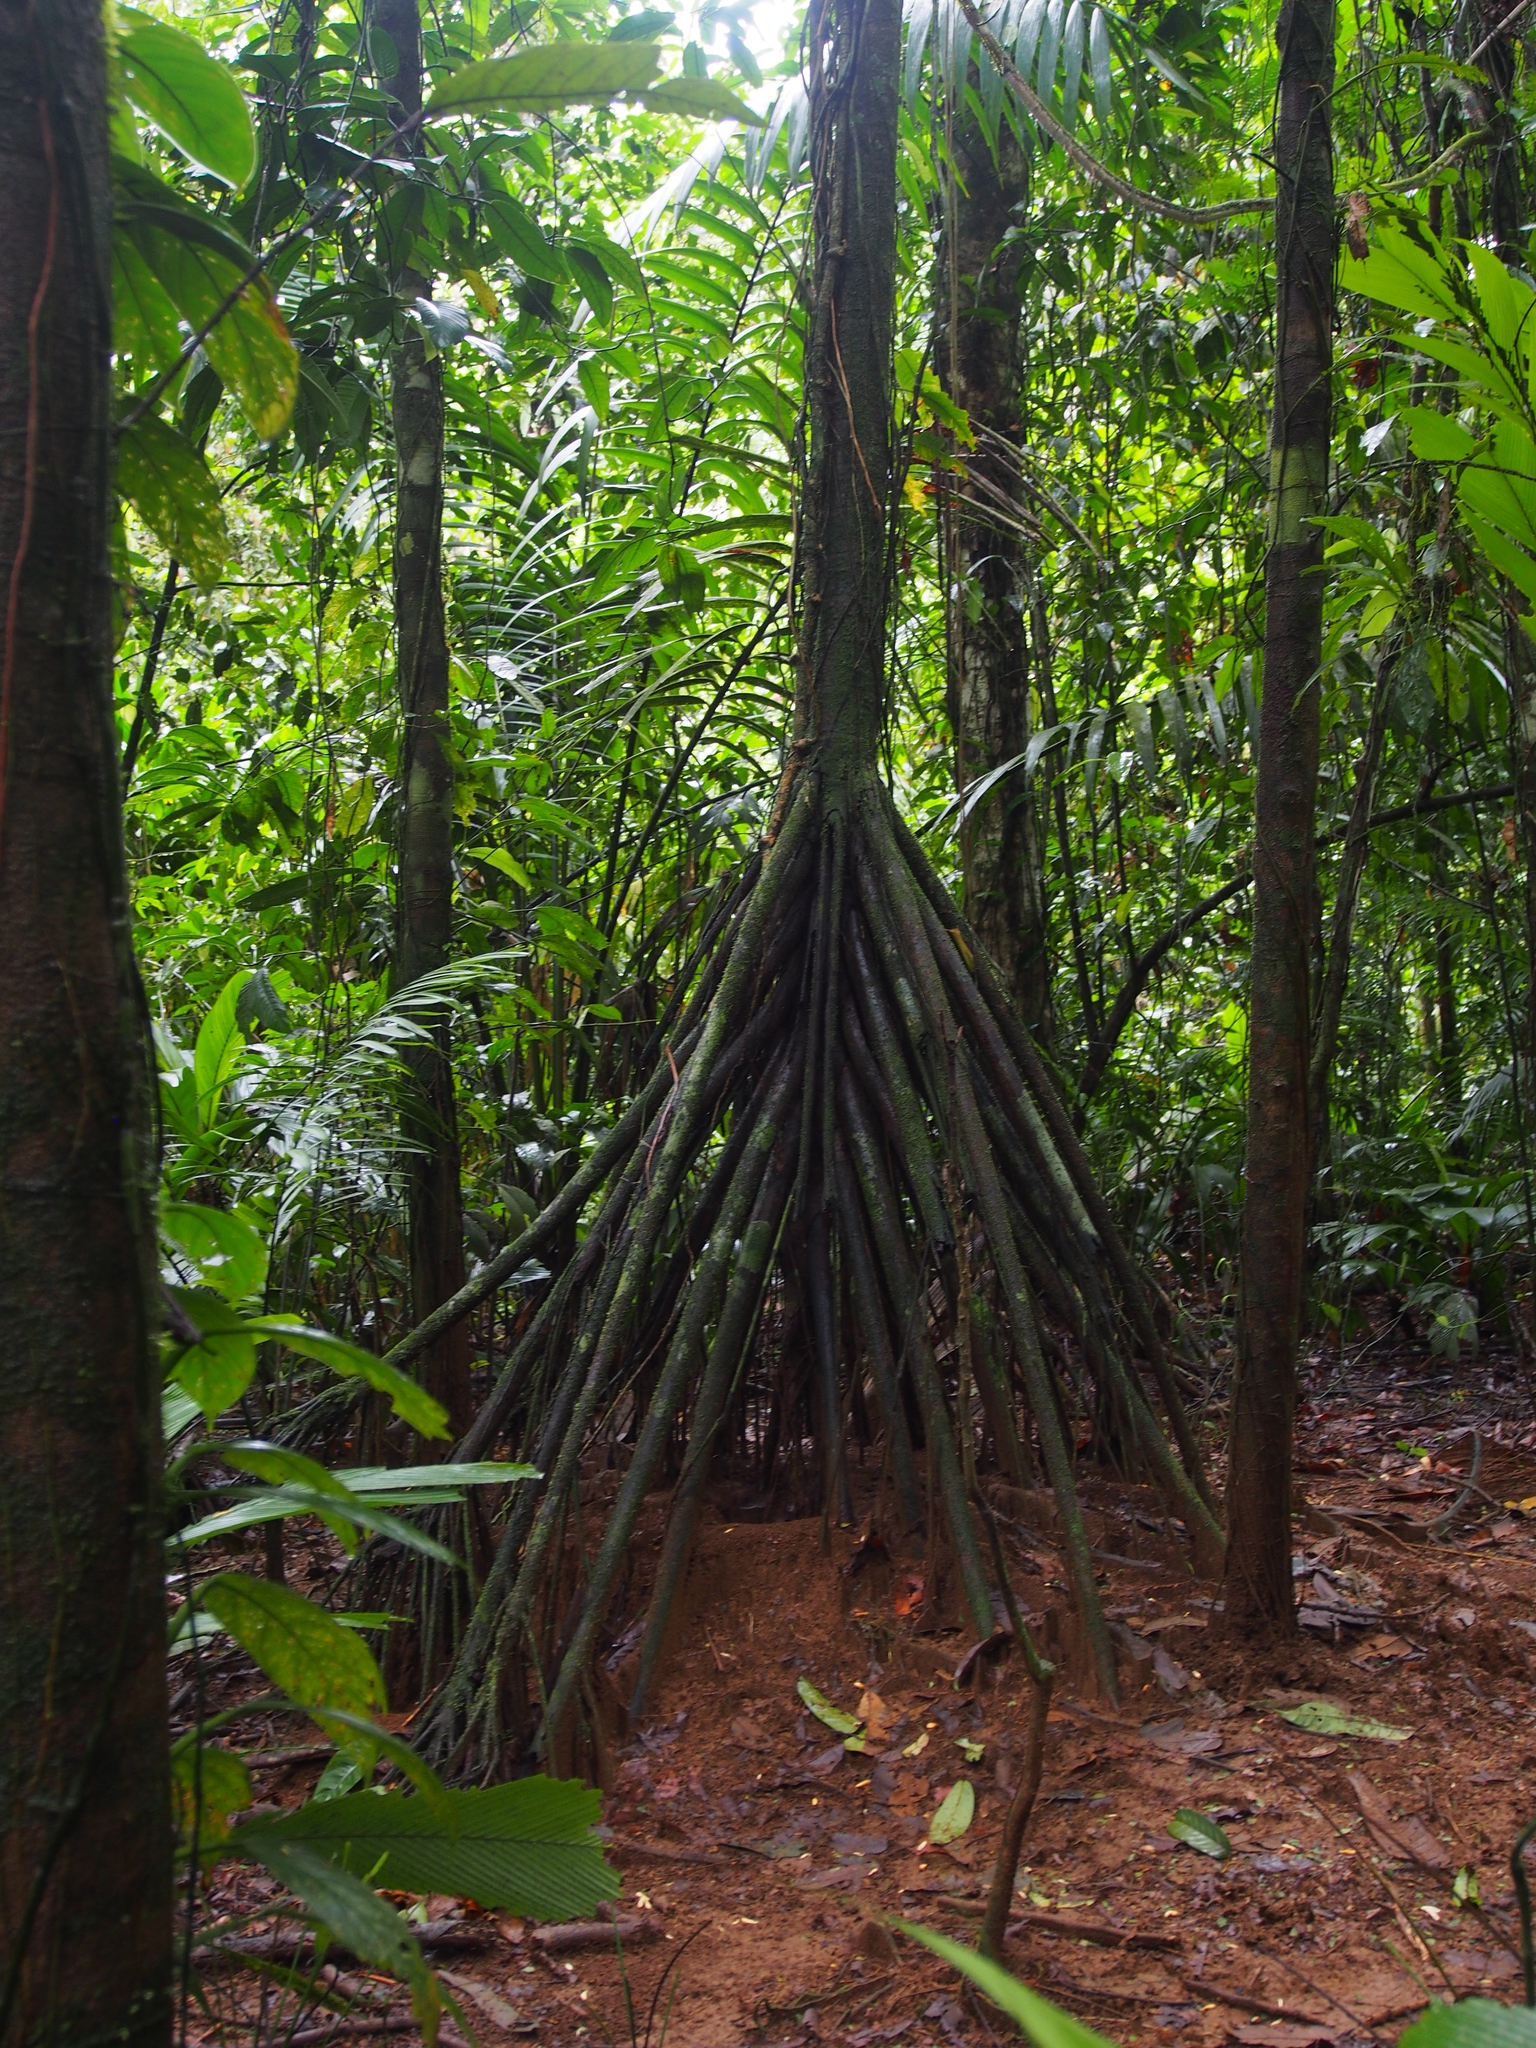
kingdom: Plantae
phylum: Tracheophyta
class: Liliopsida
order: Arecales
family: Arecaceae
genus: Socratea
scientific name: Socratea exorrhiza
